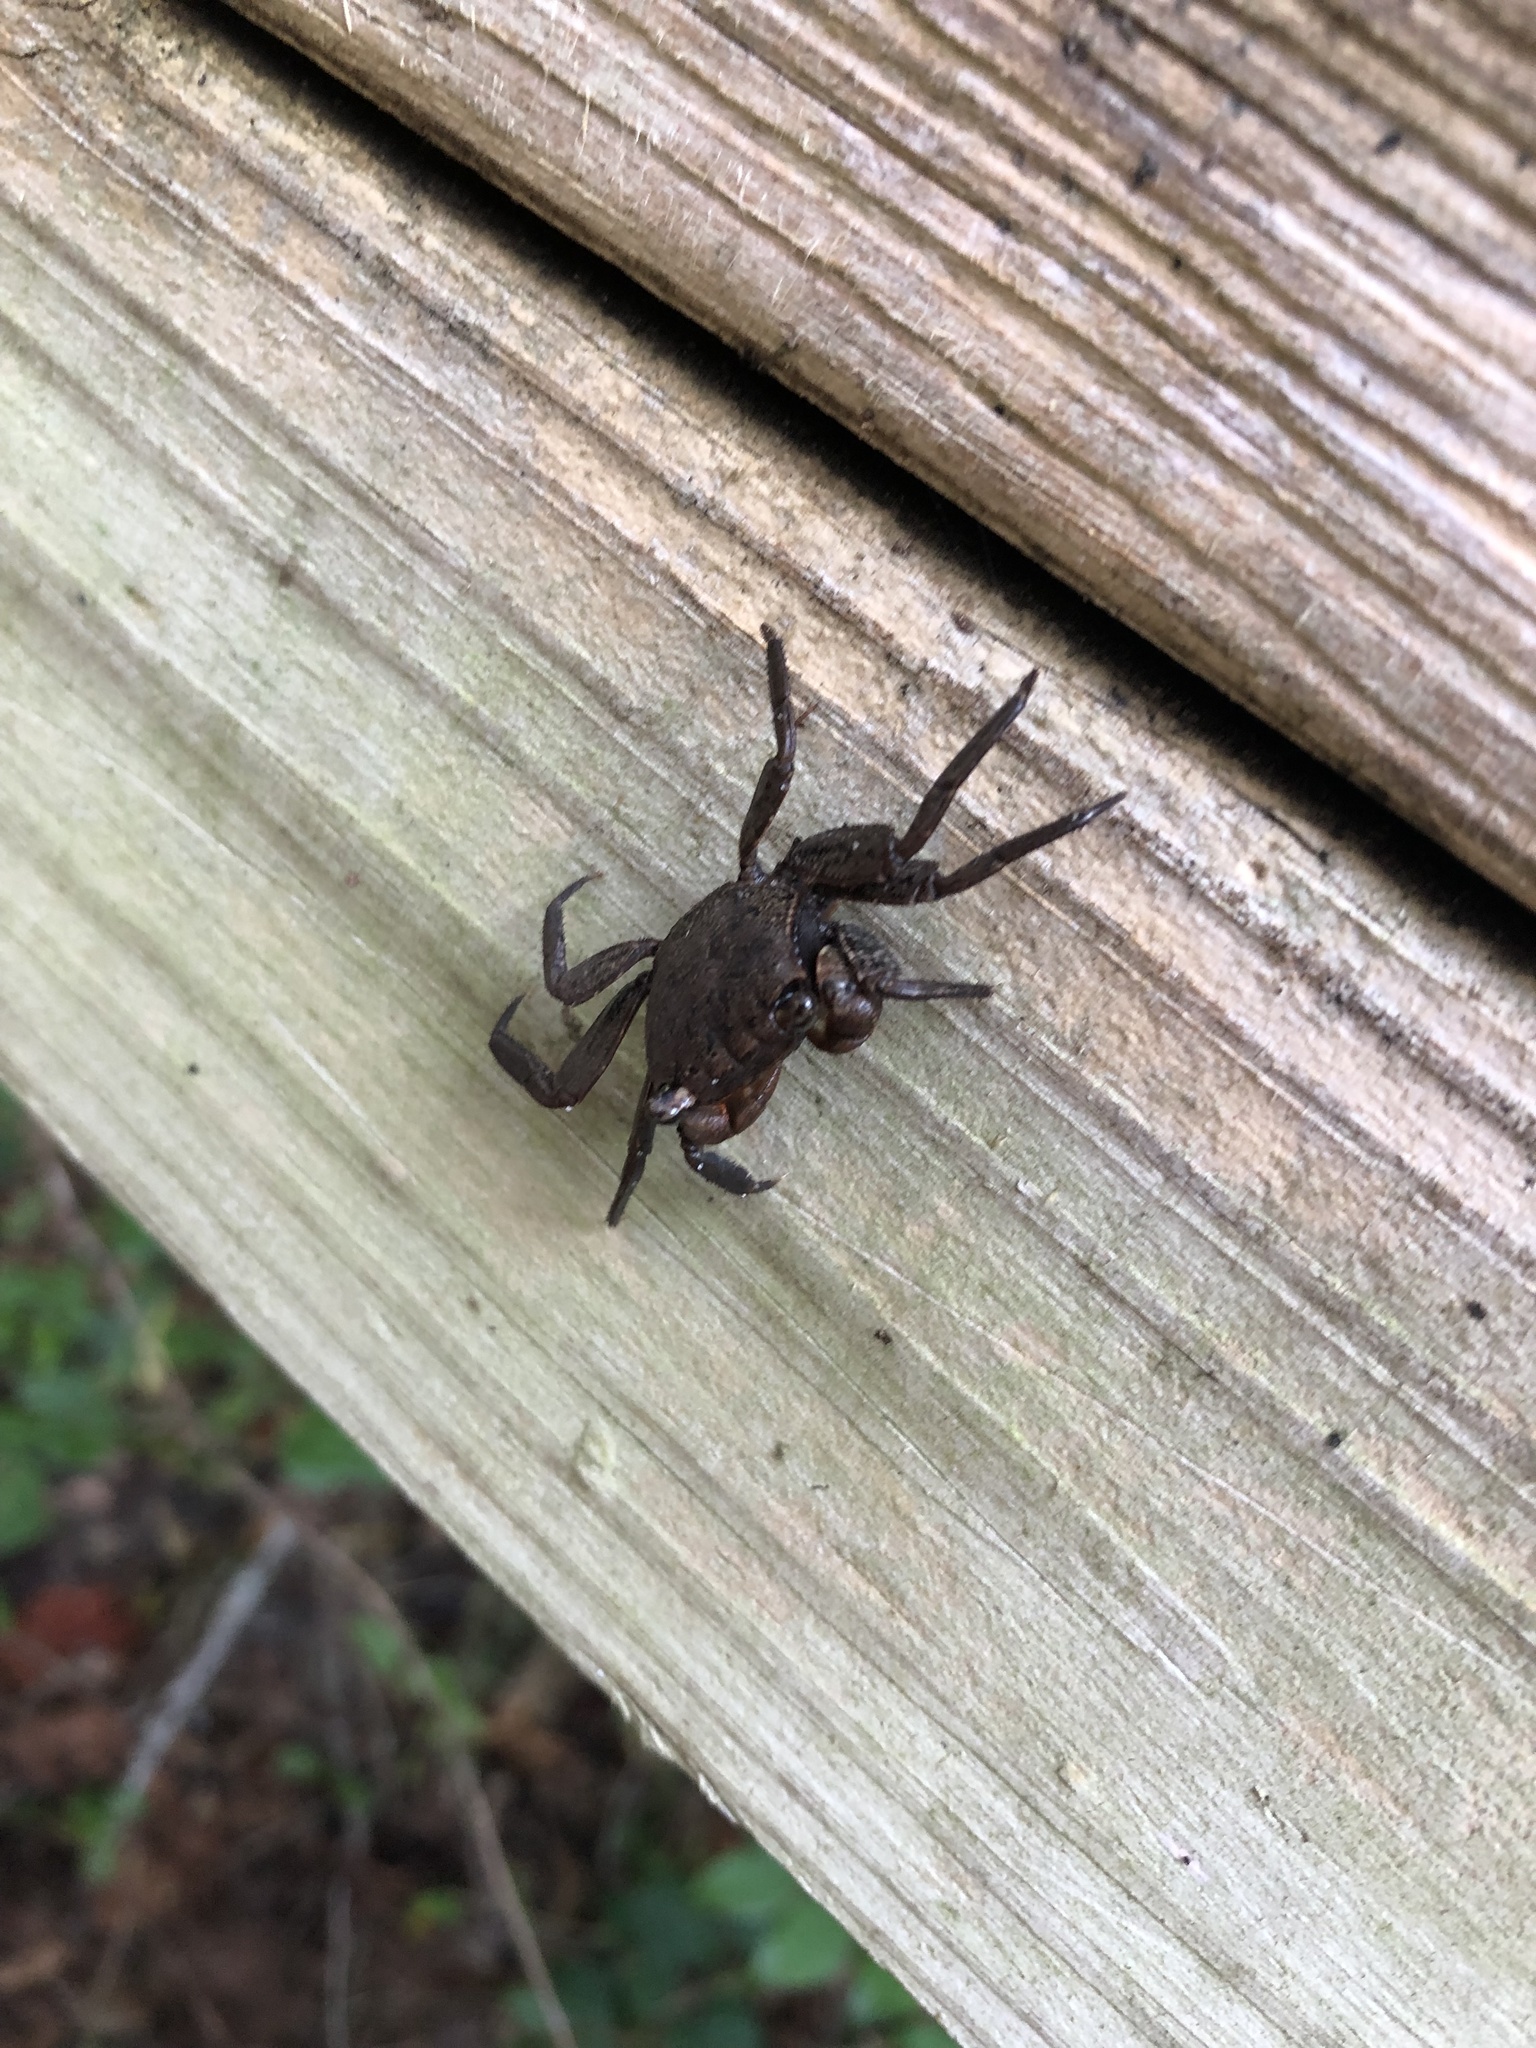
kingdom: Animalia
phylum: Arthropoda
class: Malacostraca
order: Decapoda
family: Sesarmidae
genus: Armases
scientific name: Armases cinereum
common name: Squareback marsh crab
